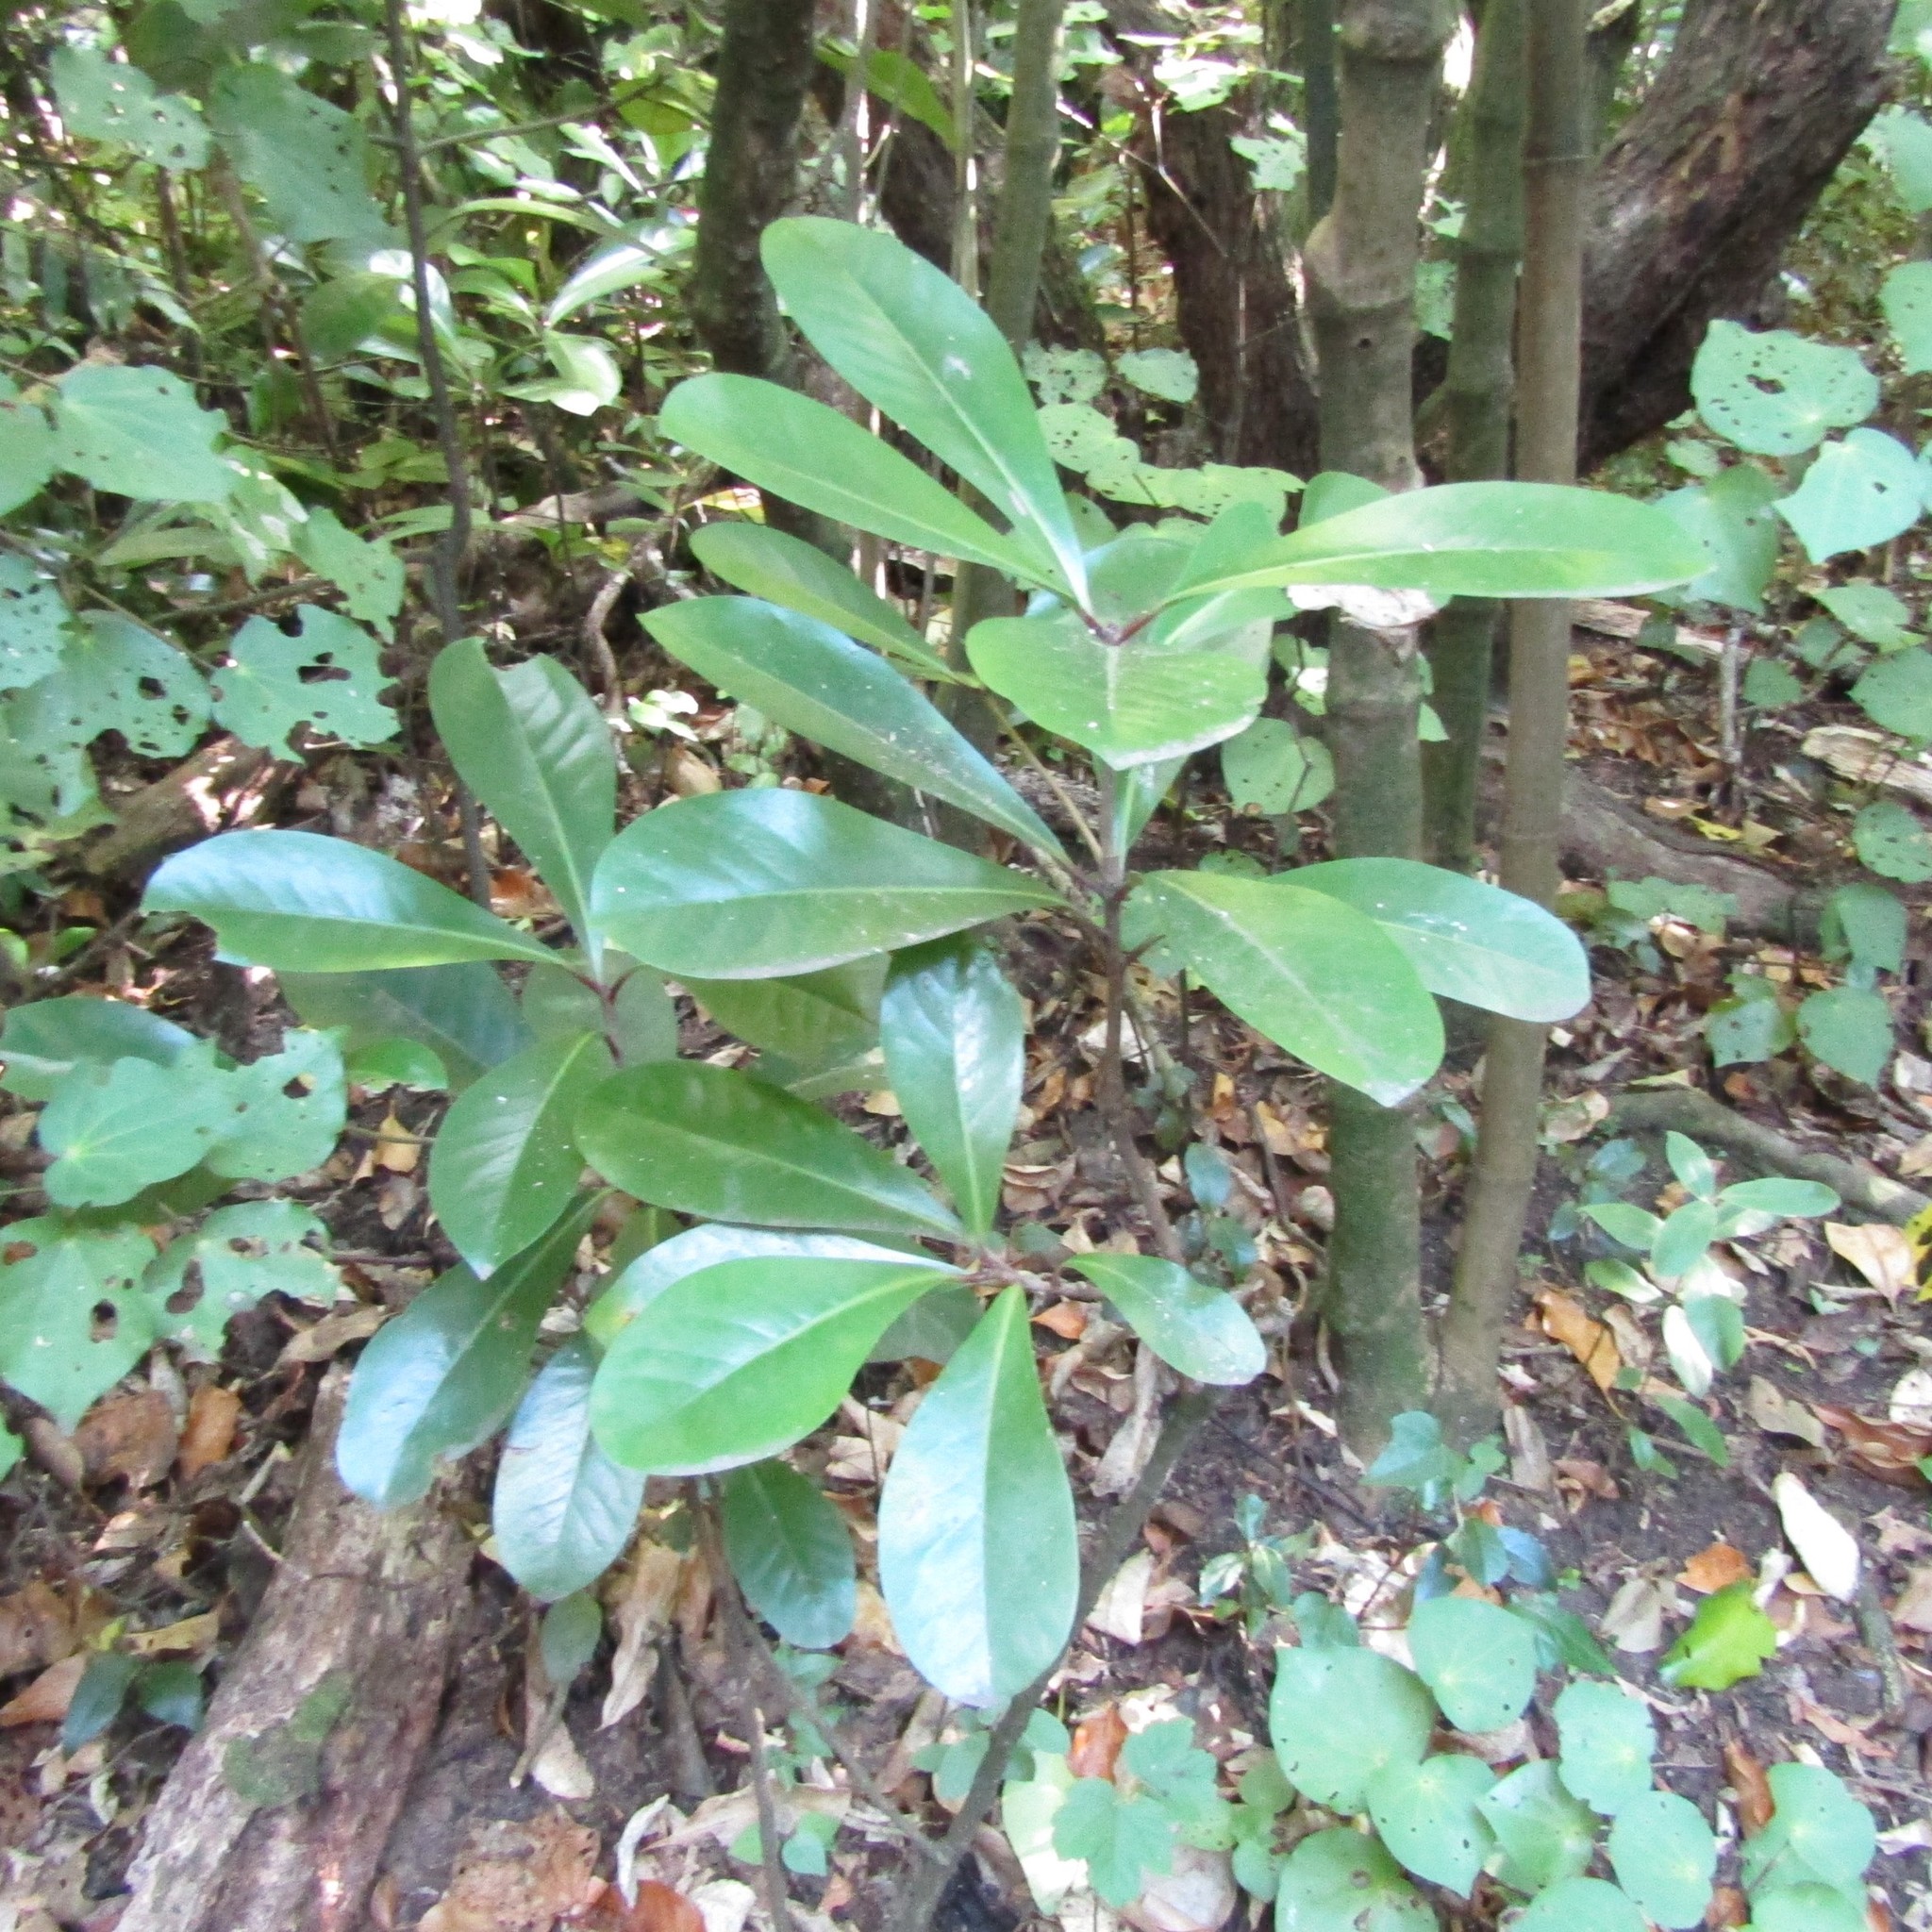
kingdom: Plantae
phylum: Tracheophyta
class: Magnoliopsida
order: Cucurbitales
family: Corynocarpaceae
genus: Corynocarpus
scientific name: Corynocarpus laevigatus
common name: New zealand laurel
